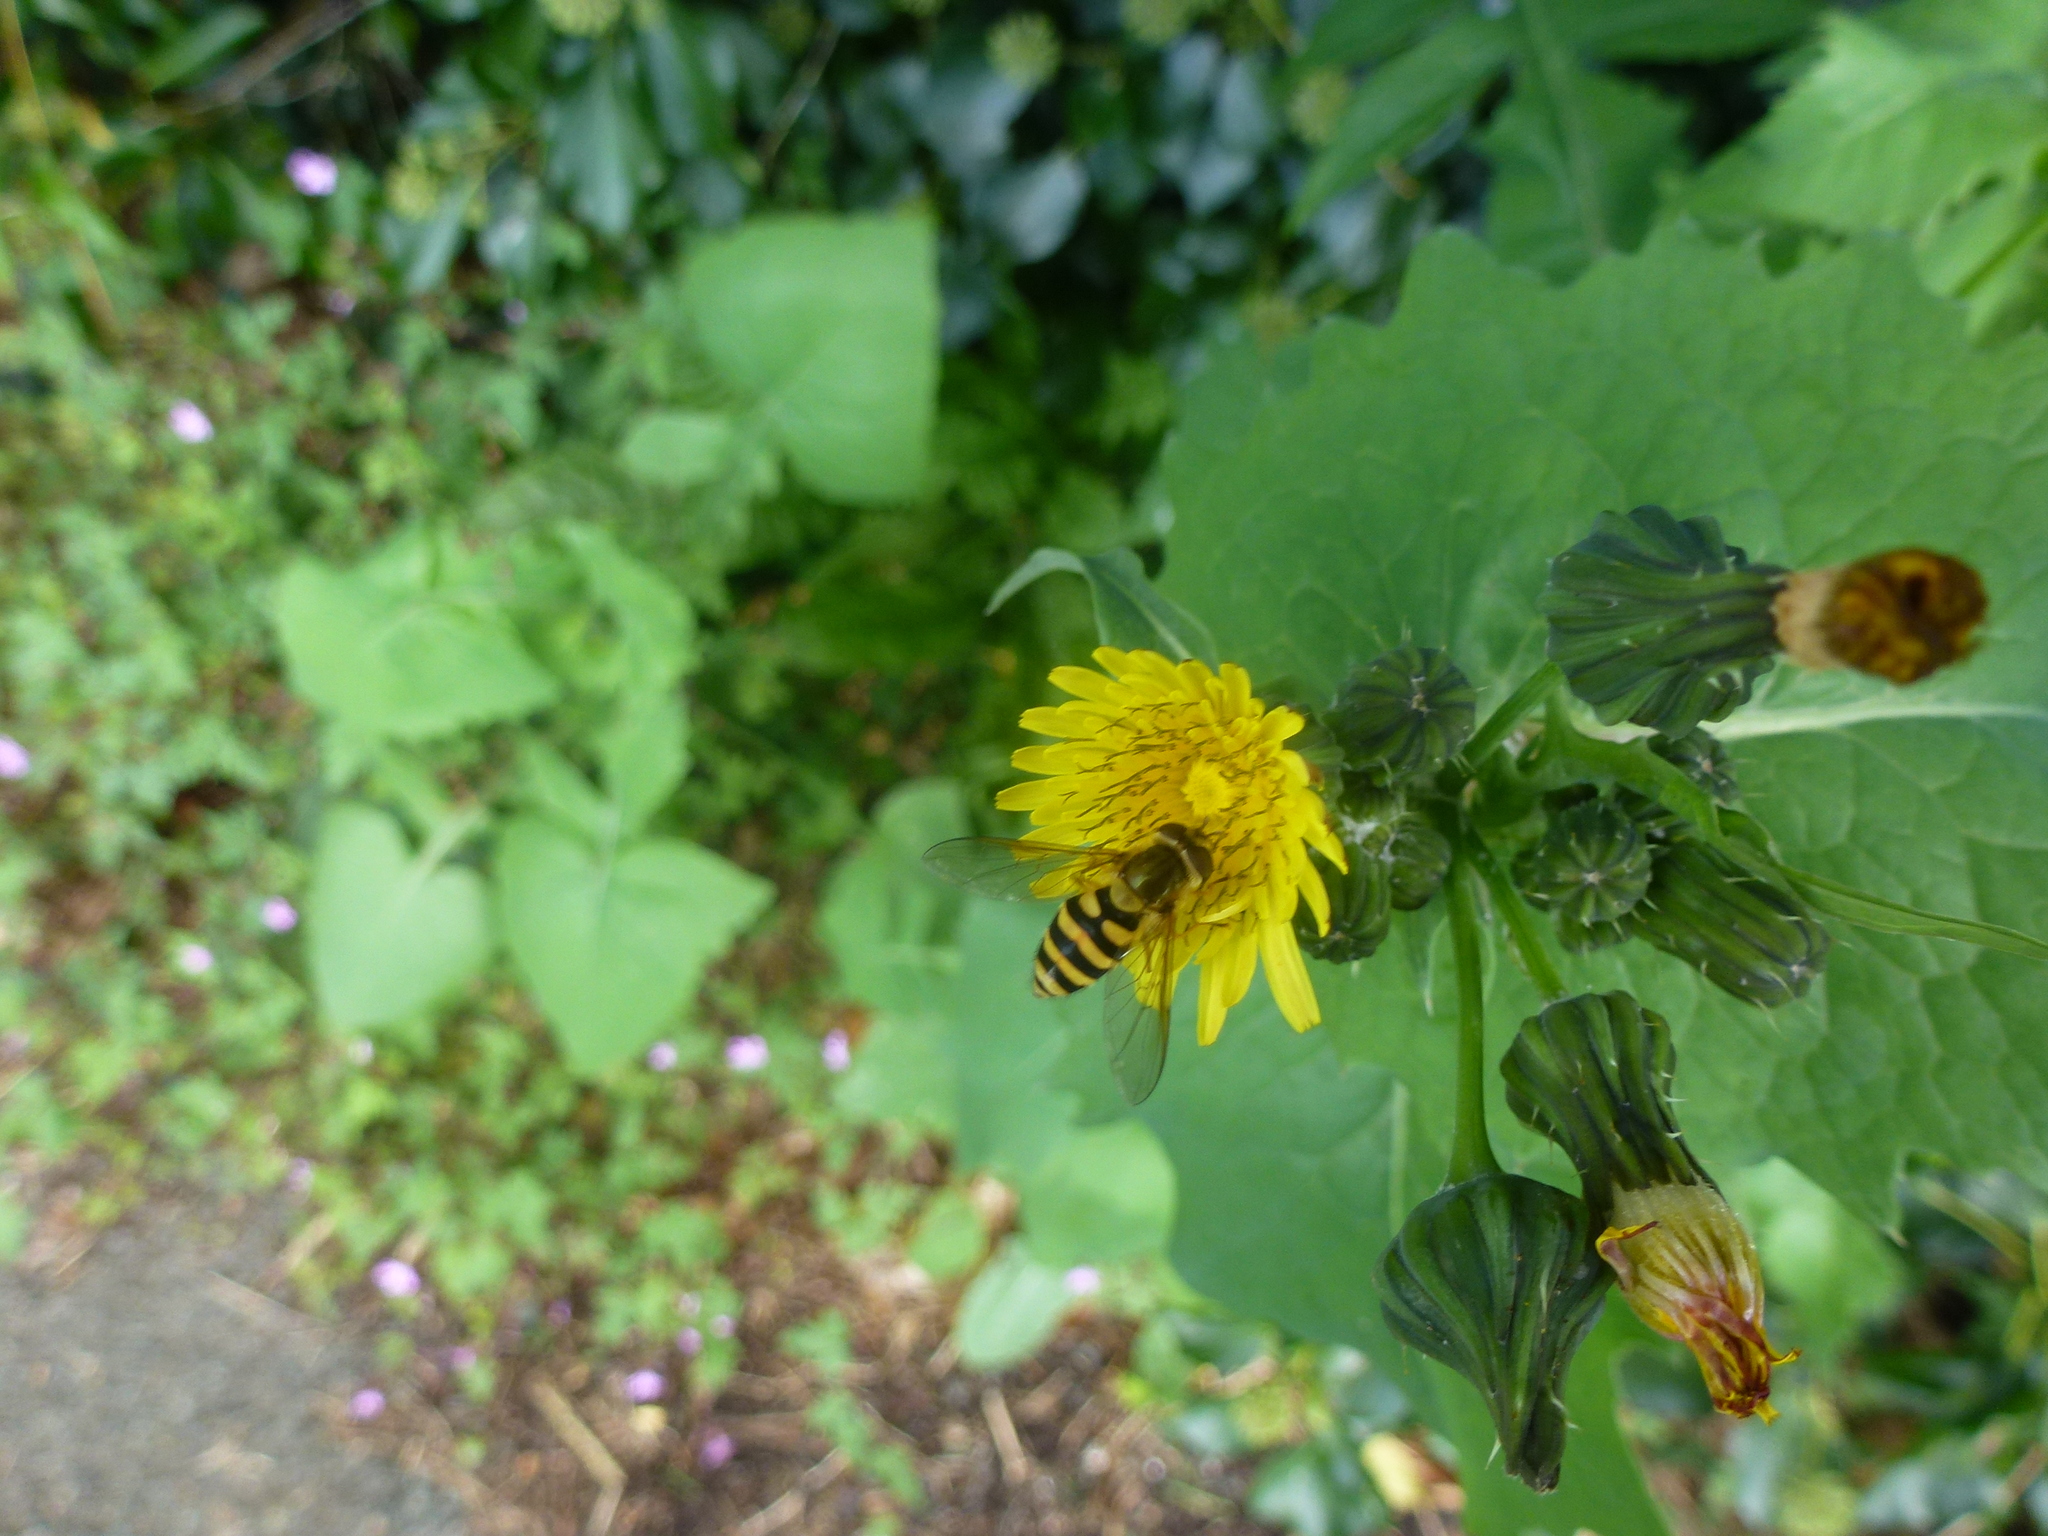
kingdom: Animalia
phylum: Arthropoda
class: Insecta
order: Diptera
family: Syrphidae
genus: Syrphus
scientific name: Syrphus
